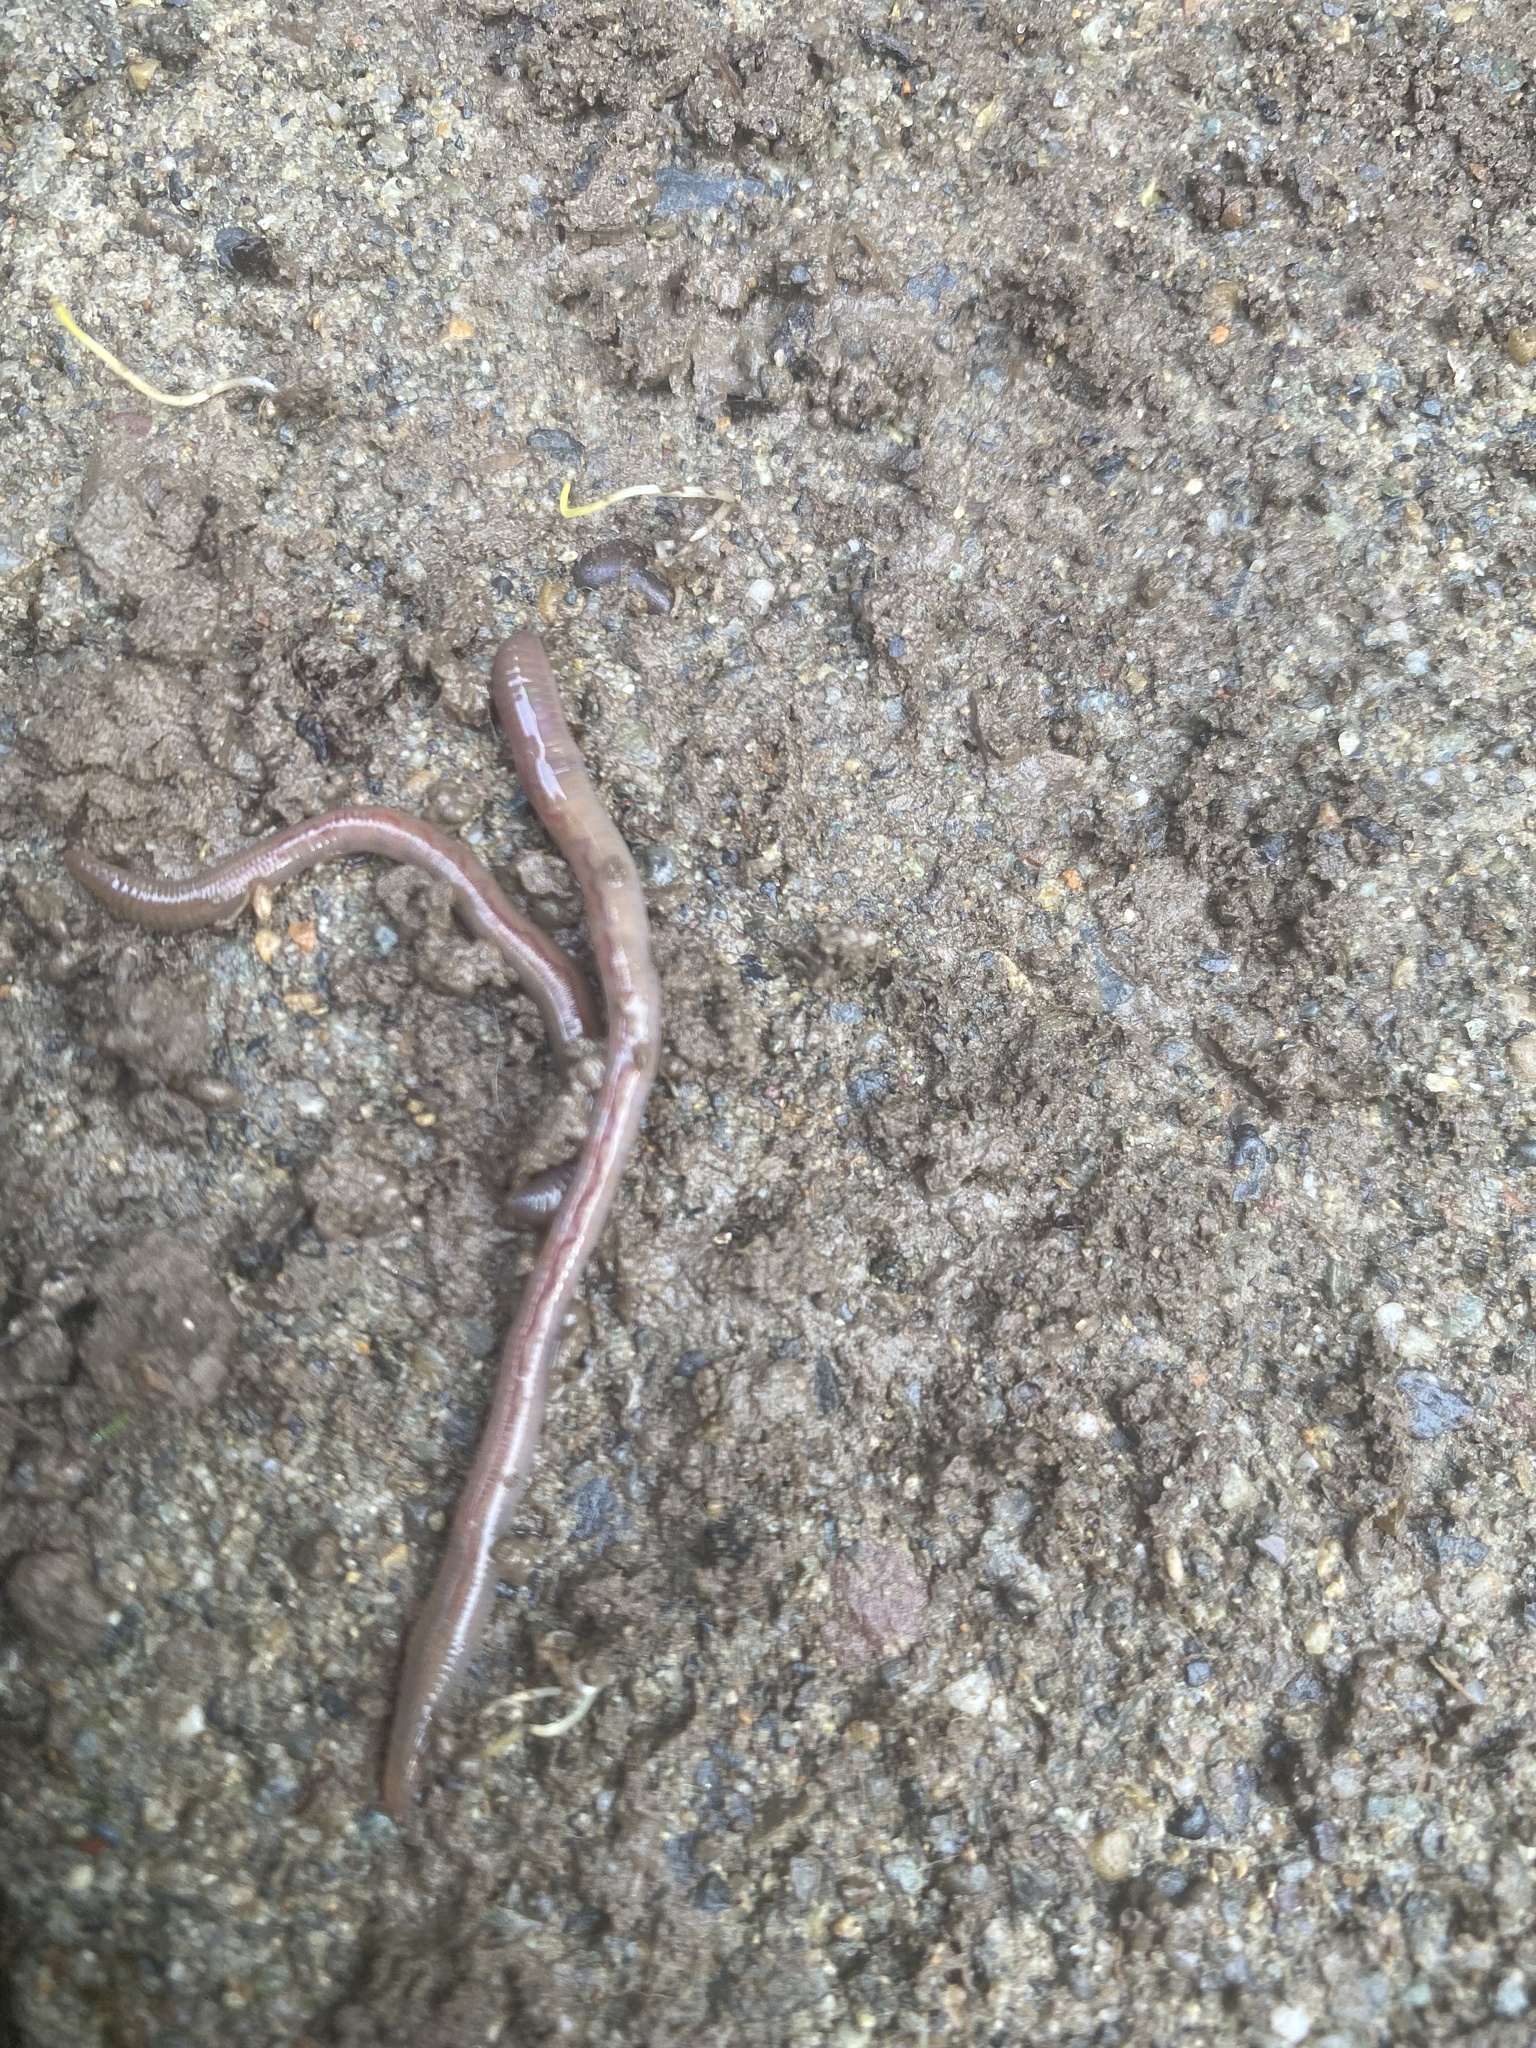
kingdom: Animalia
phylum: Annelida
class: Clitellata
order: Crassiclitellata
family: Lumbricidae
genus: Lumbricus
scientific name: Lumbricus terrestris
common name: Common earthworm
